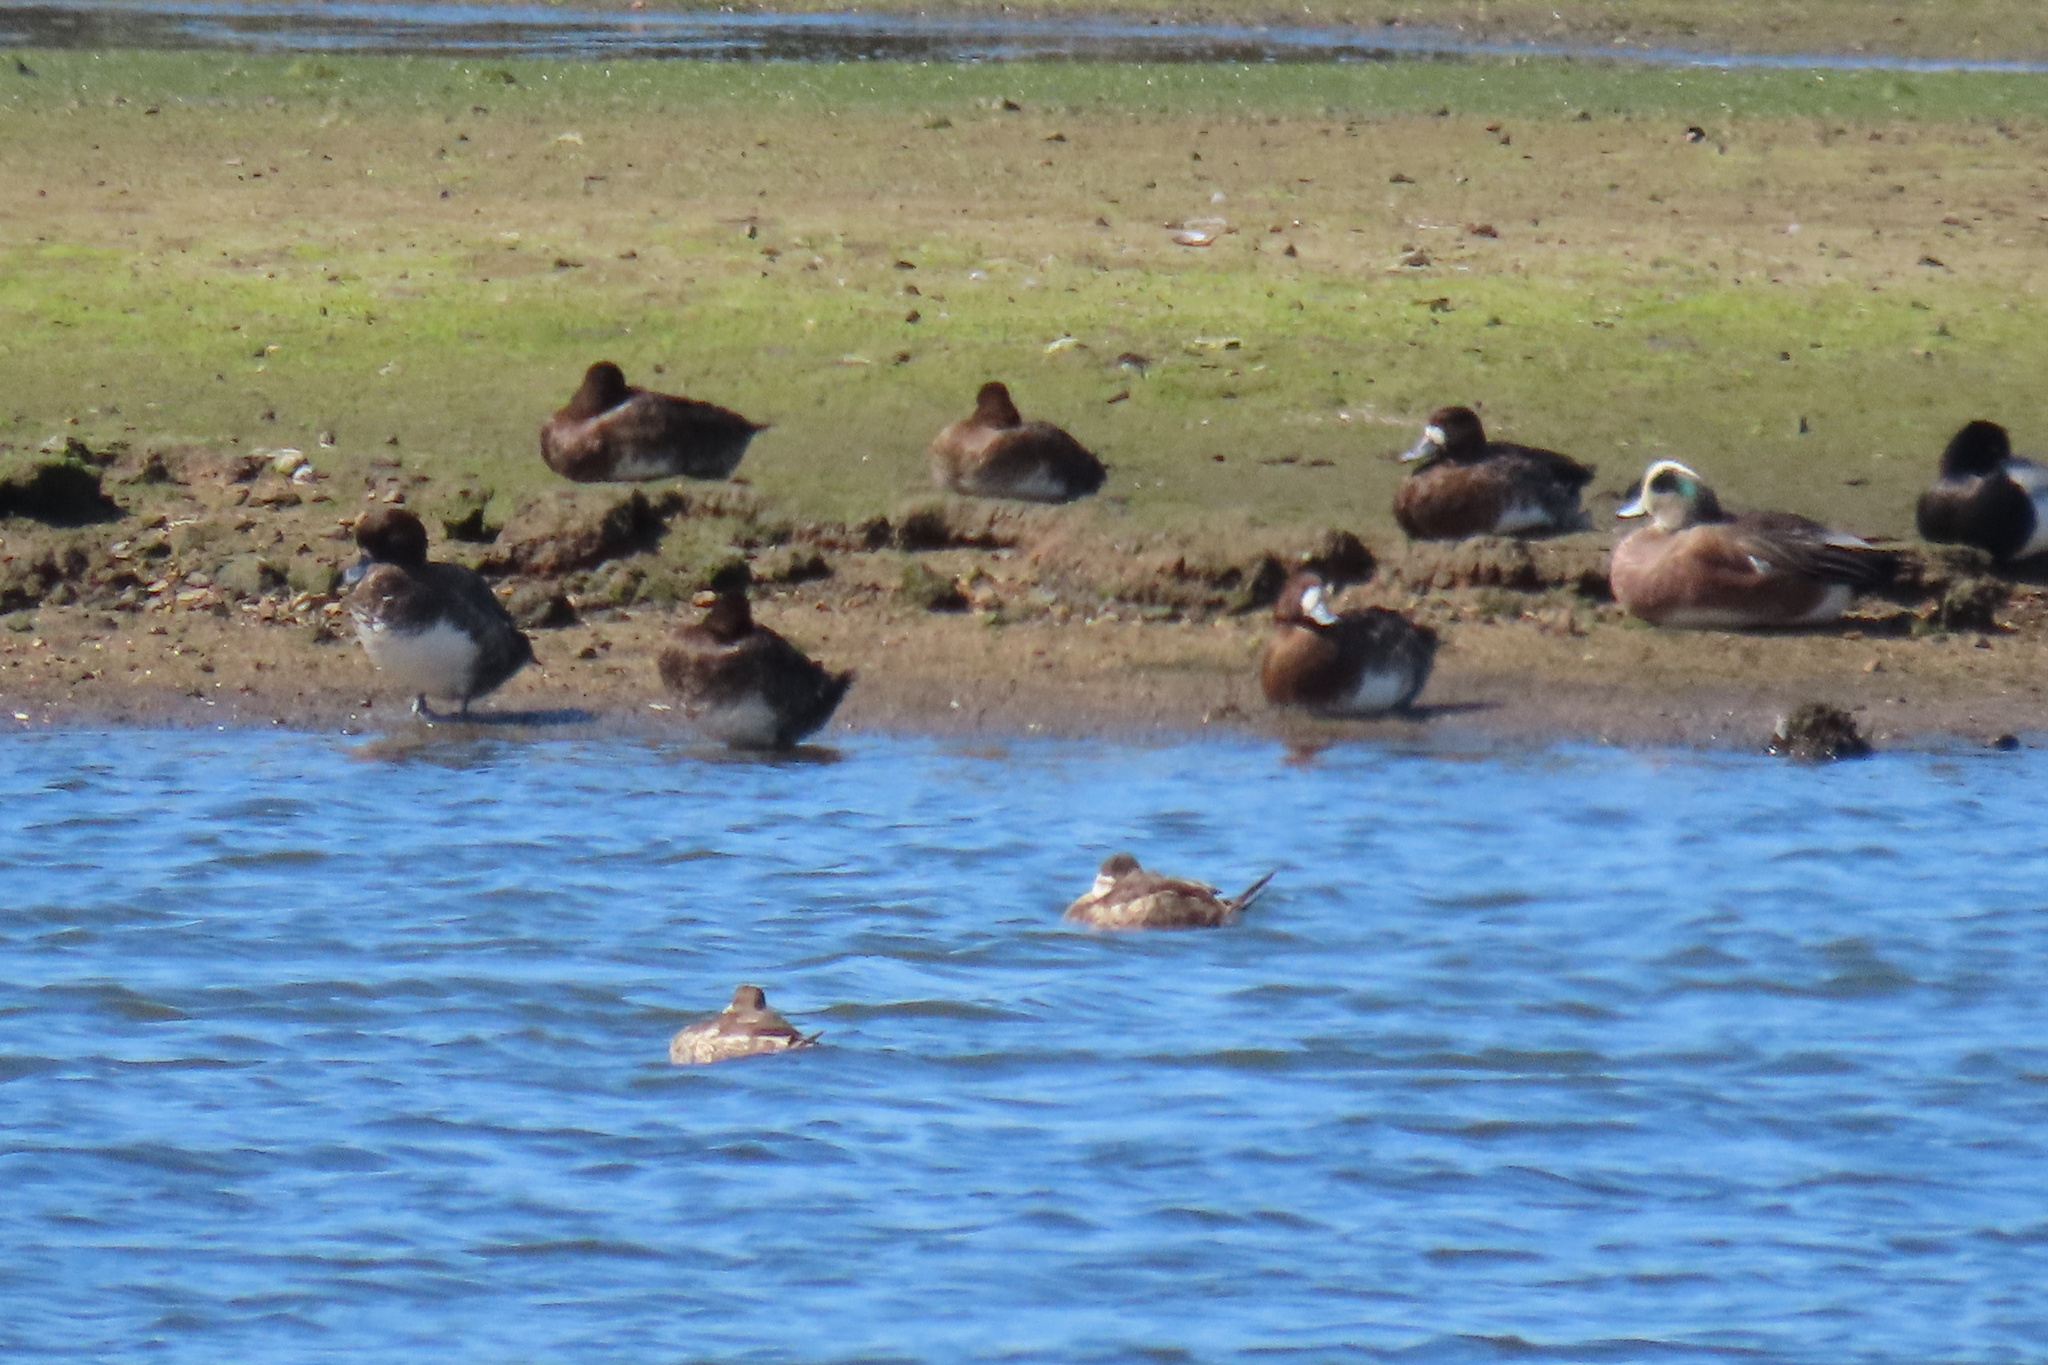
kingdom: Animalia
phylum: Chordata
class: Aves
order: Anseriformes
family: Anatidae
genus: Oxyura
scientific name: Oxyura jamaicensis
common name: Ruddy duck
